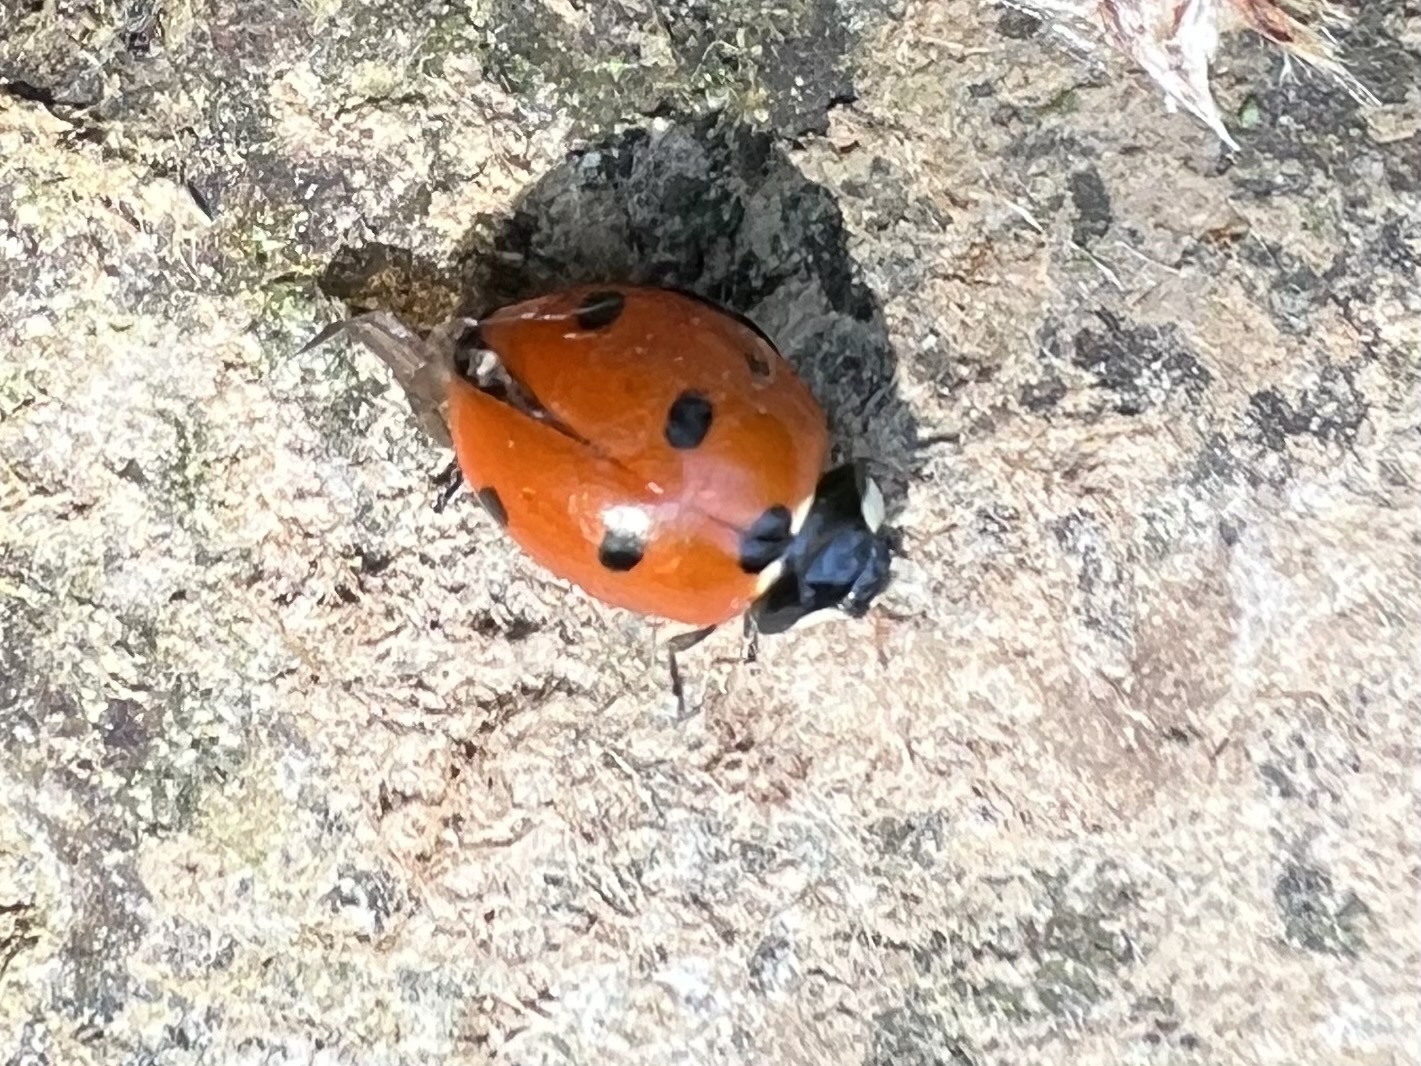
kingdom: Animalia
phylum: Arthropoda
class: Insecta
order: Coleoptera
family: Coccinellidae
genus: Coccinella
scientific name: Coccinella septempunctata
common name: Sevenspotted lady beetle
